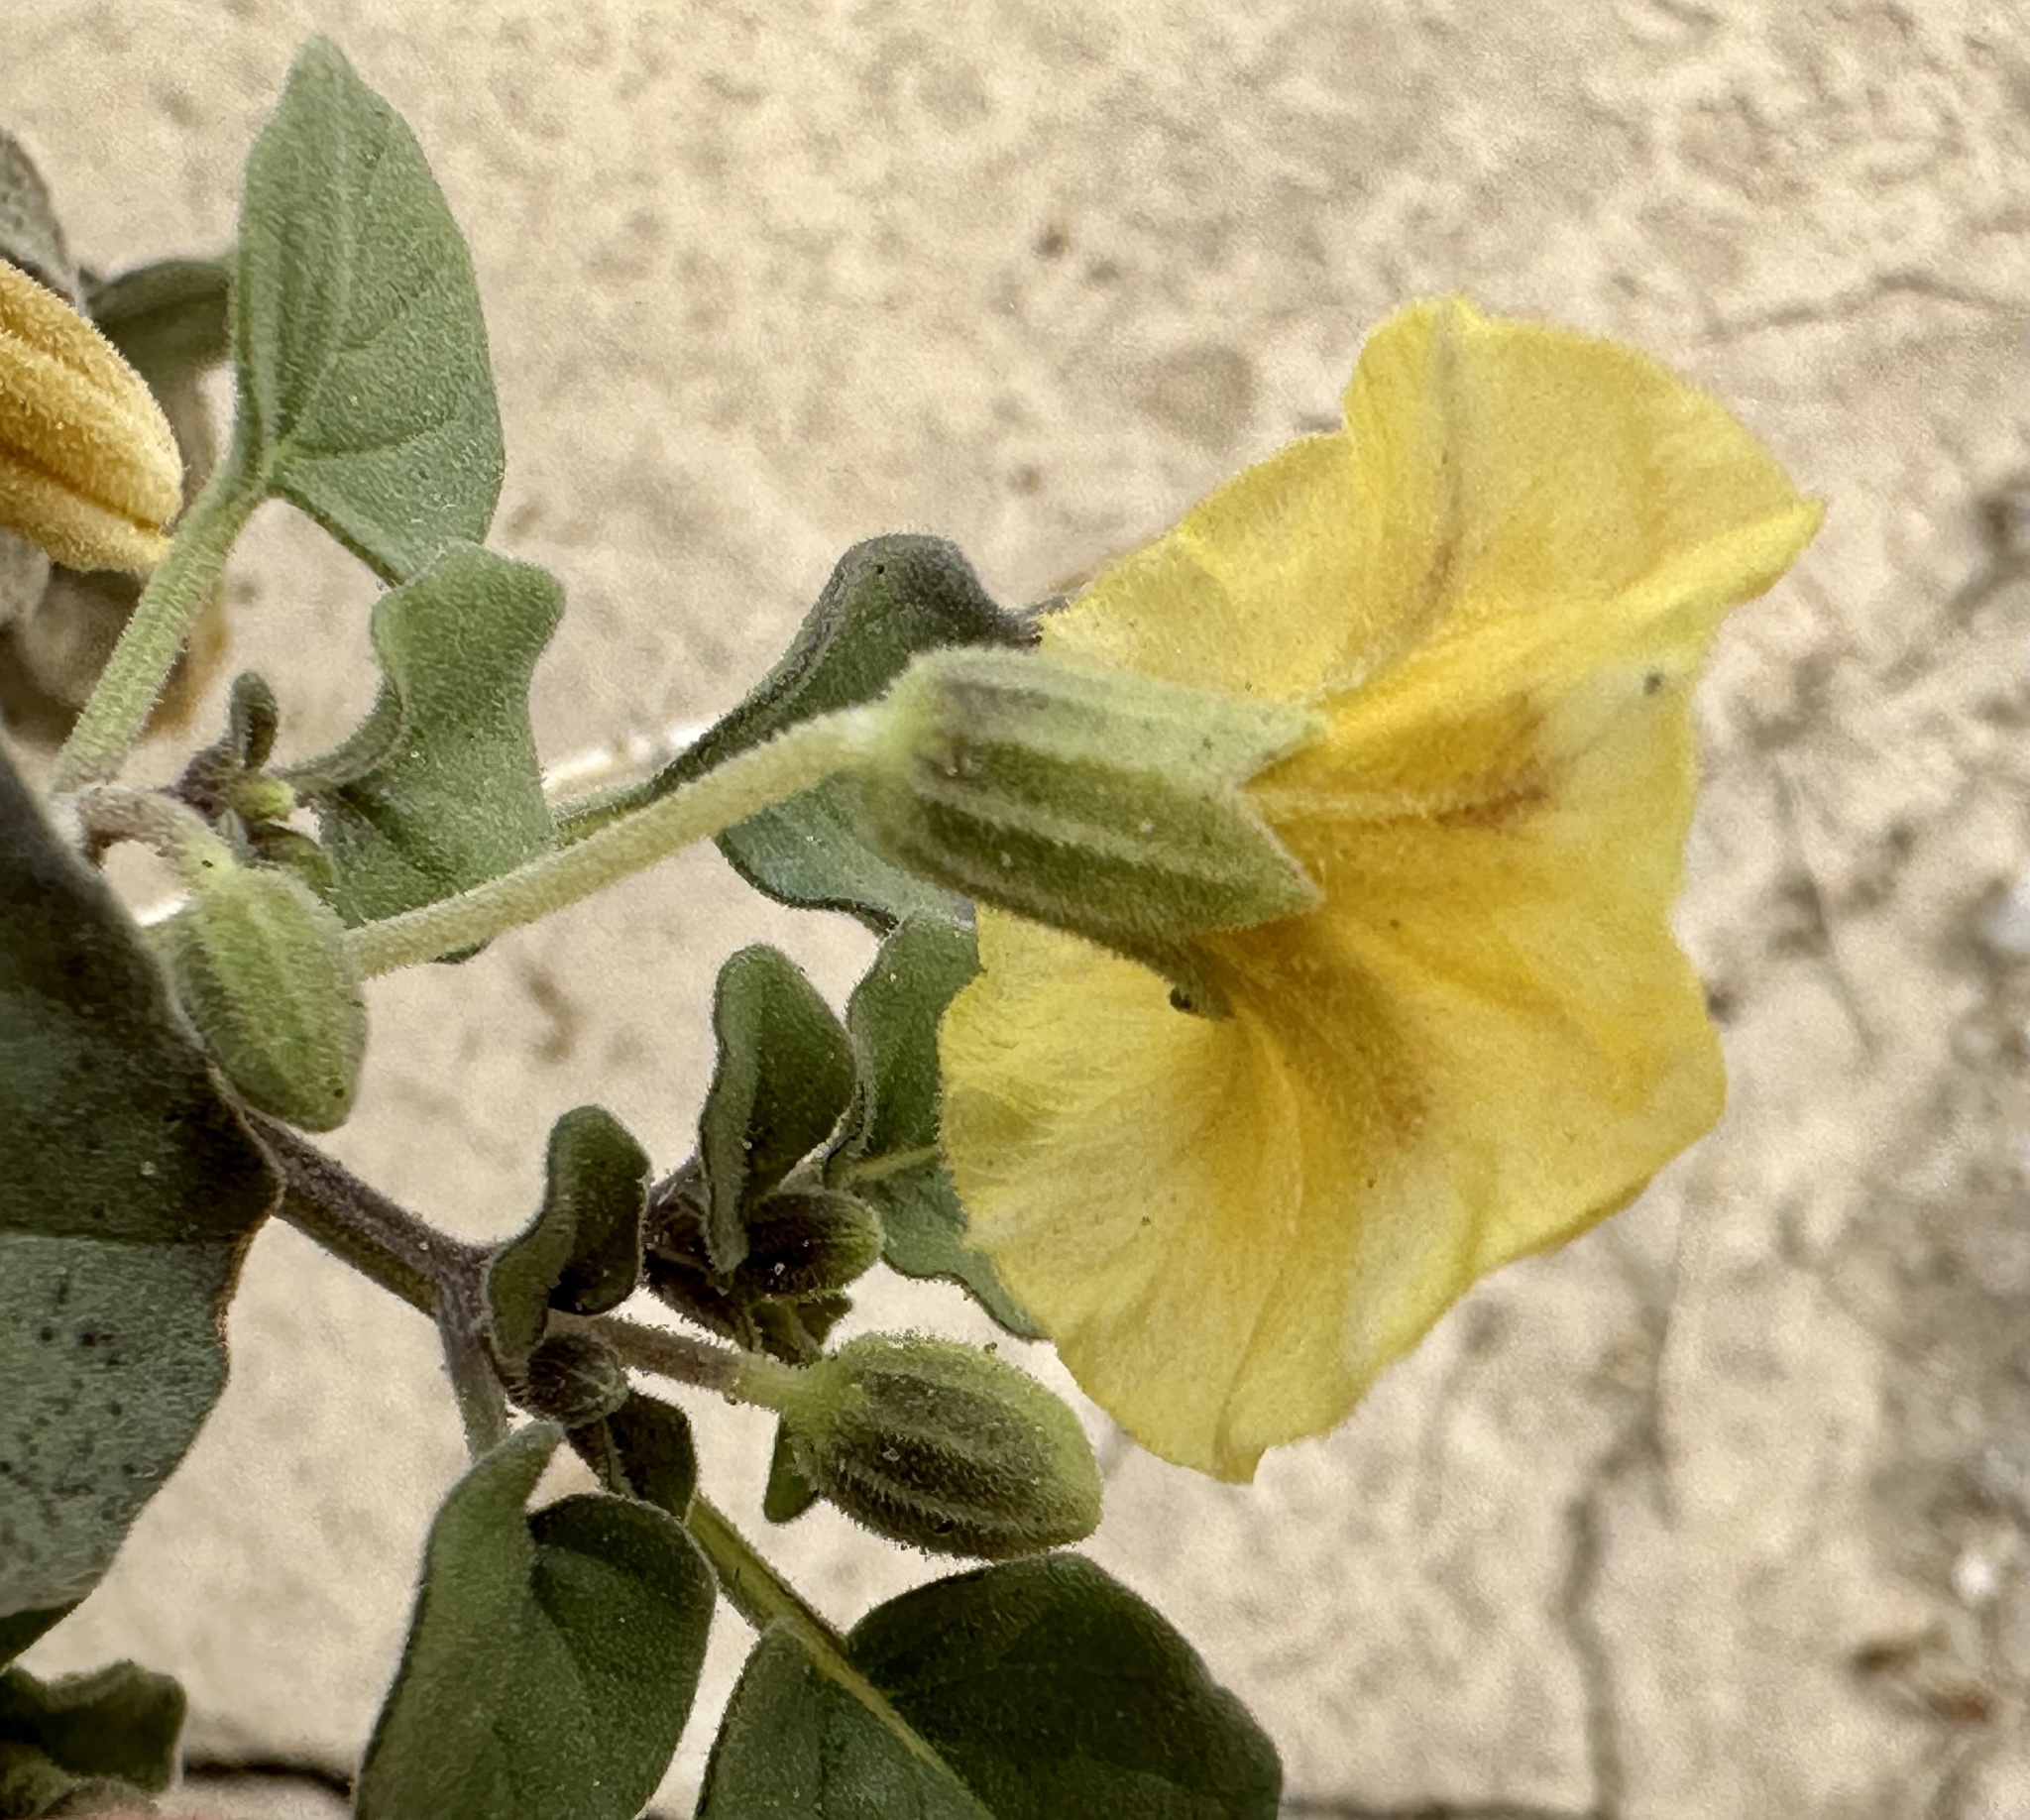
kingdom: Plantae
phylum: Tracheophyta
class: Magnoliopsida
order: Solanales
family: Solanaceae
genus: Physalis
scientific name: Physalis crassifolia
